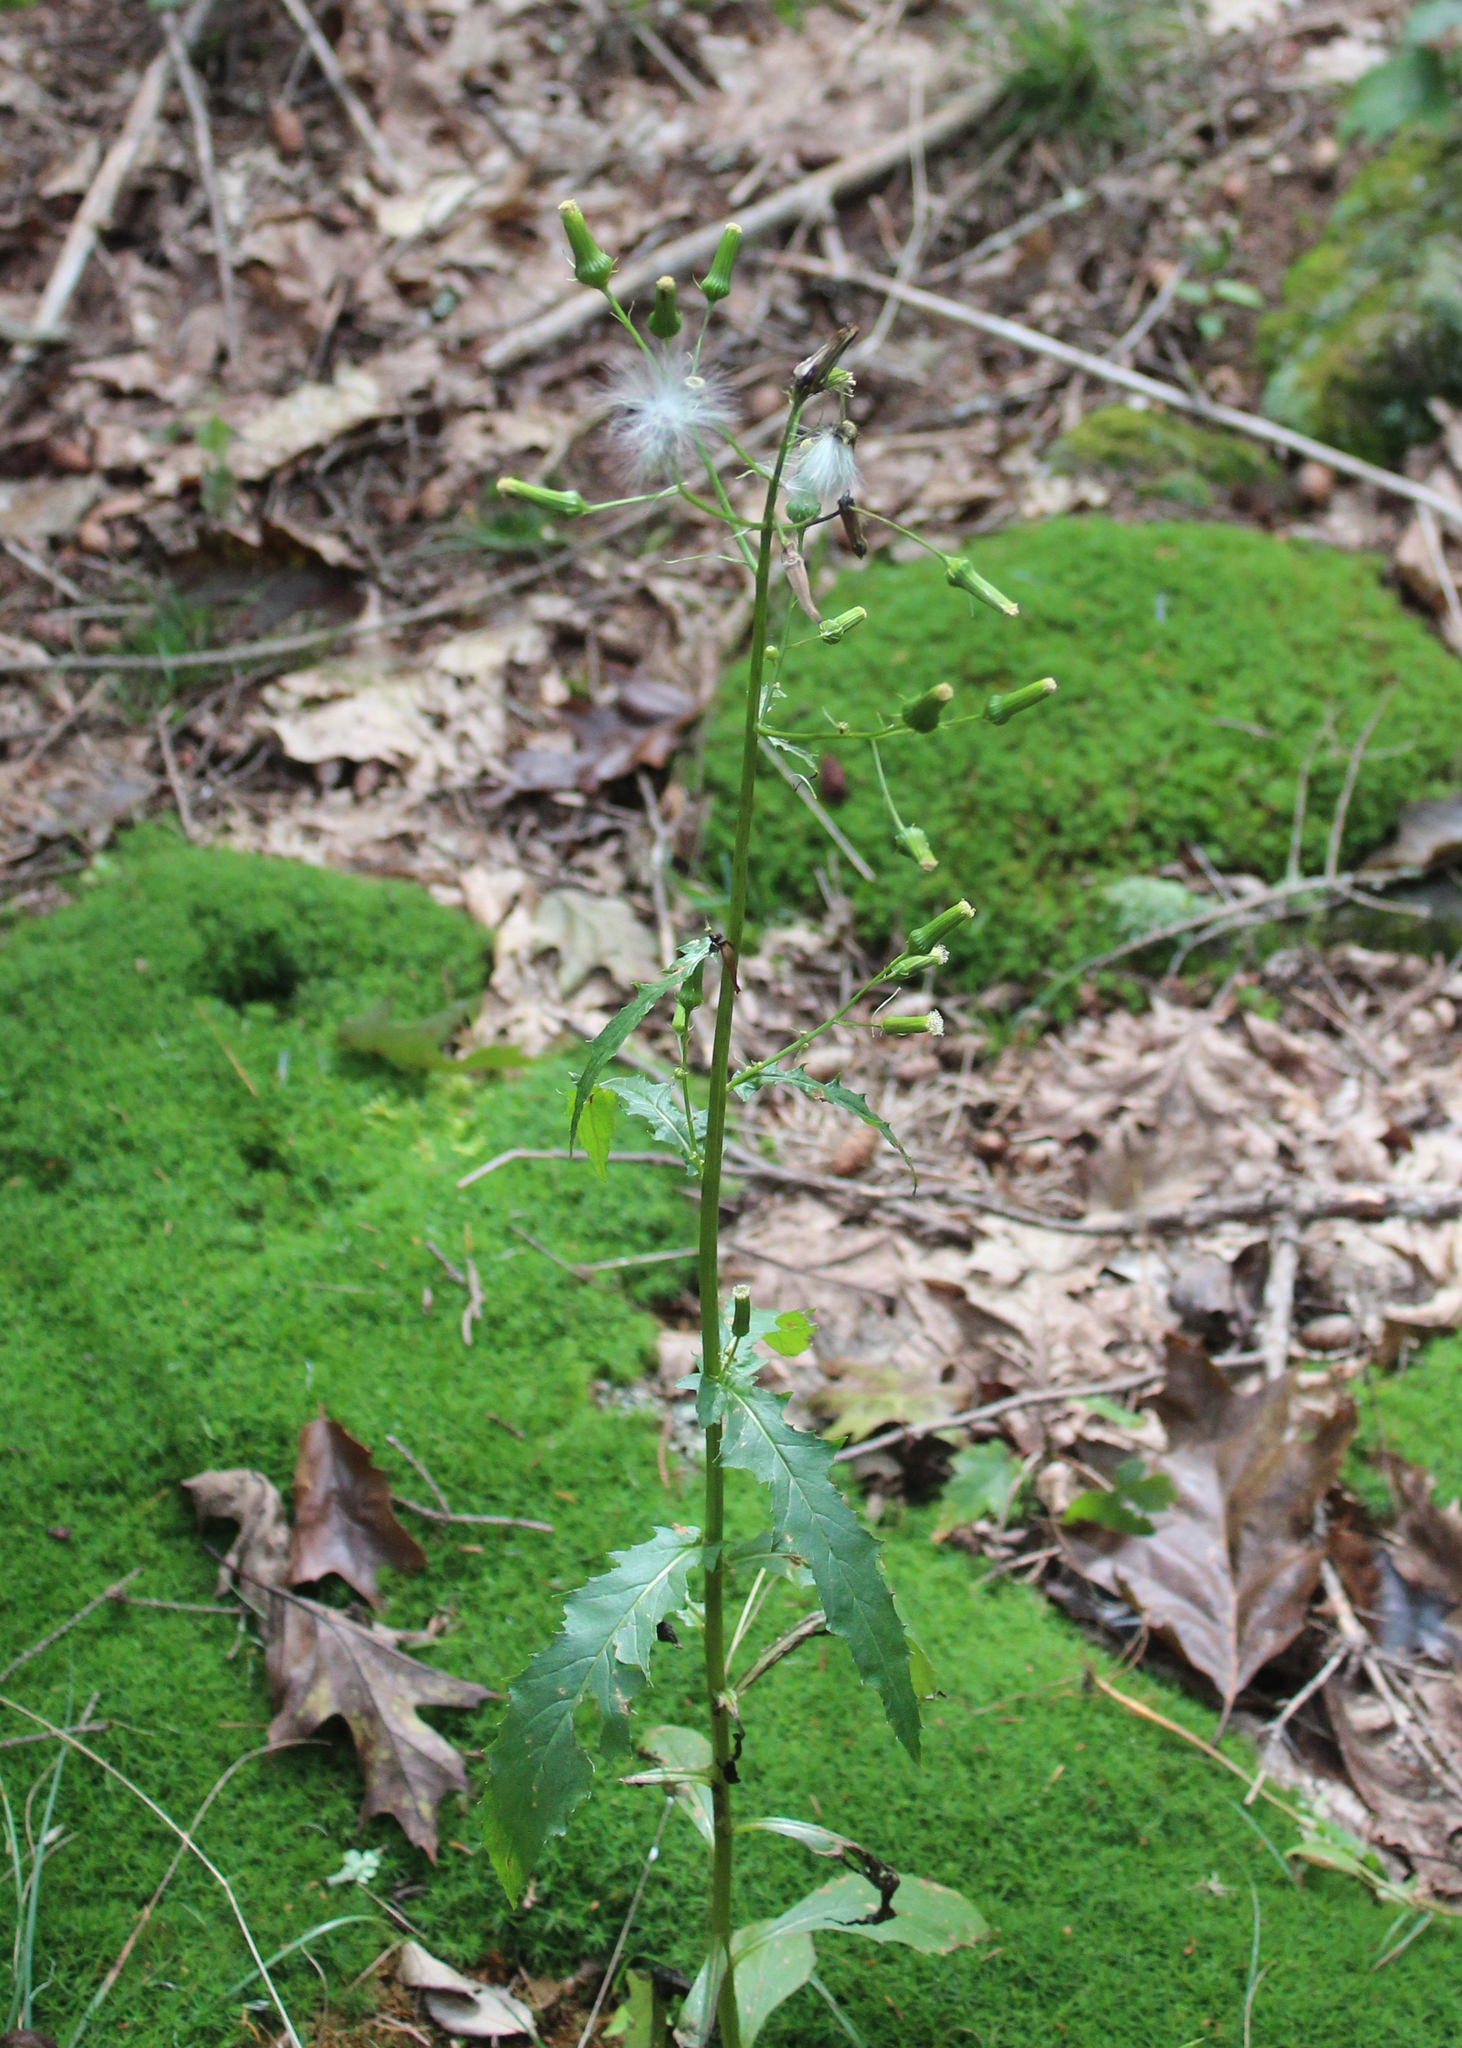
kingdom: Plantae
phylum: Tracheophyta
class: Magnoliopsida
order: Asterales
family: Asteraceae
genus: Erechtites
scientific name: Erechtites hieraciifolius
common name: American burnweed
